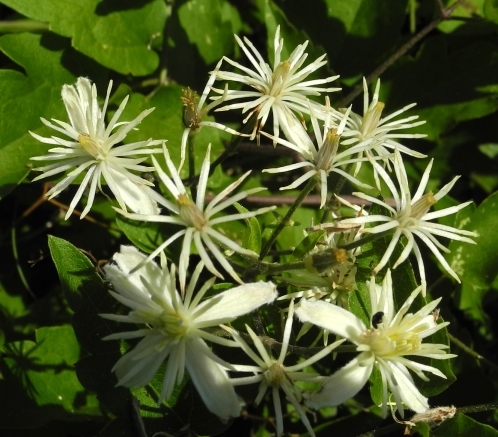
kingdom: Plantae
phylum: Tracheophyta
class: Magnoliopsida
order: Ranunculales
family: Ranunculaceae
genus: Clematis
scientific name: Clematis vitalba
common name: Evergreen clematis
